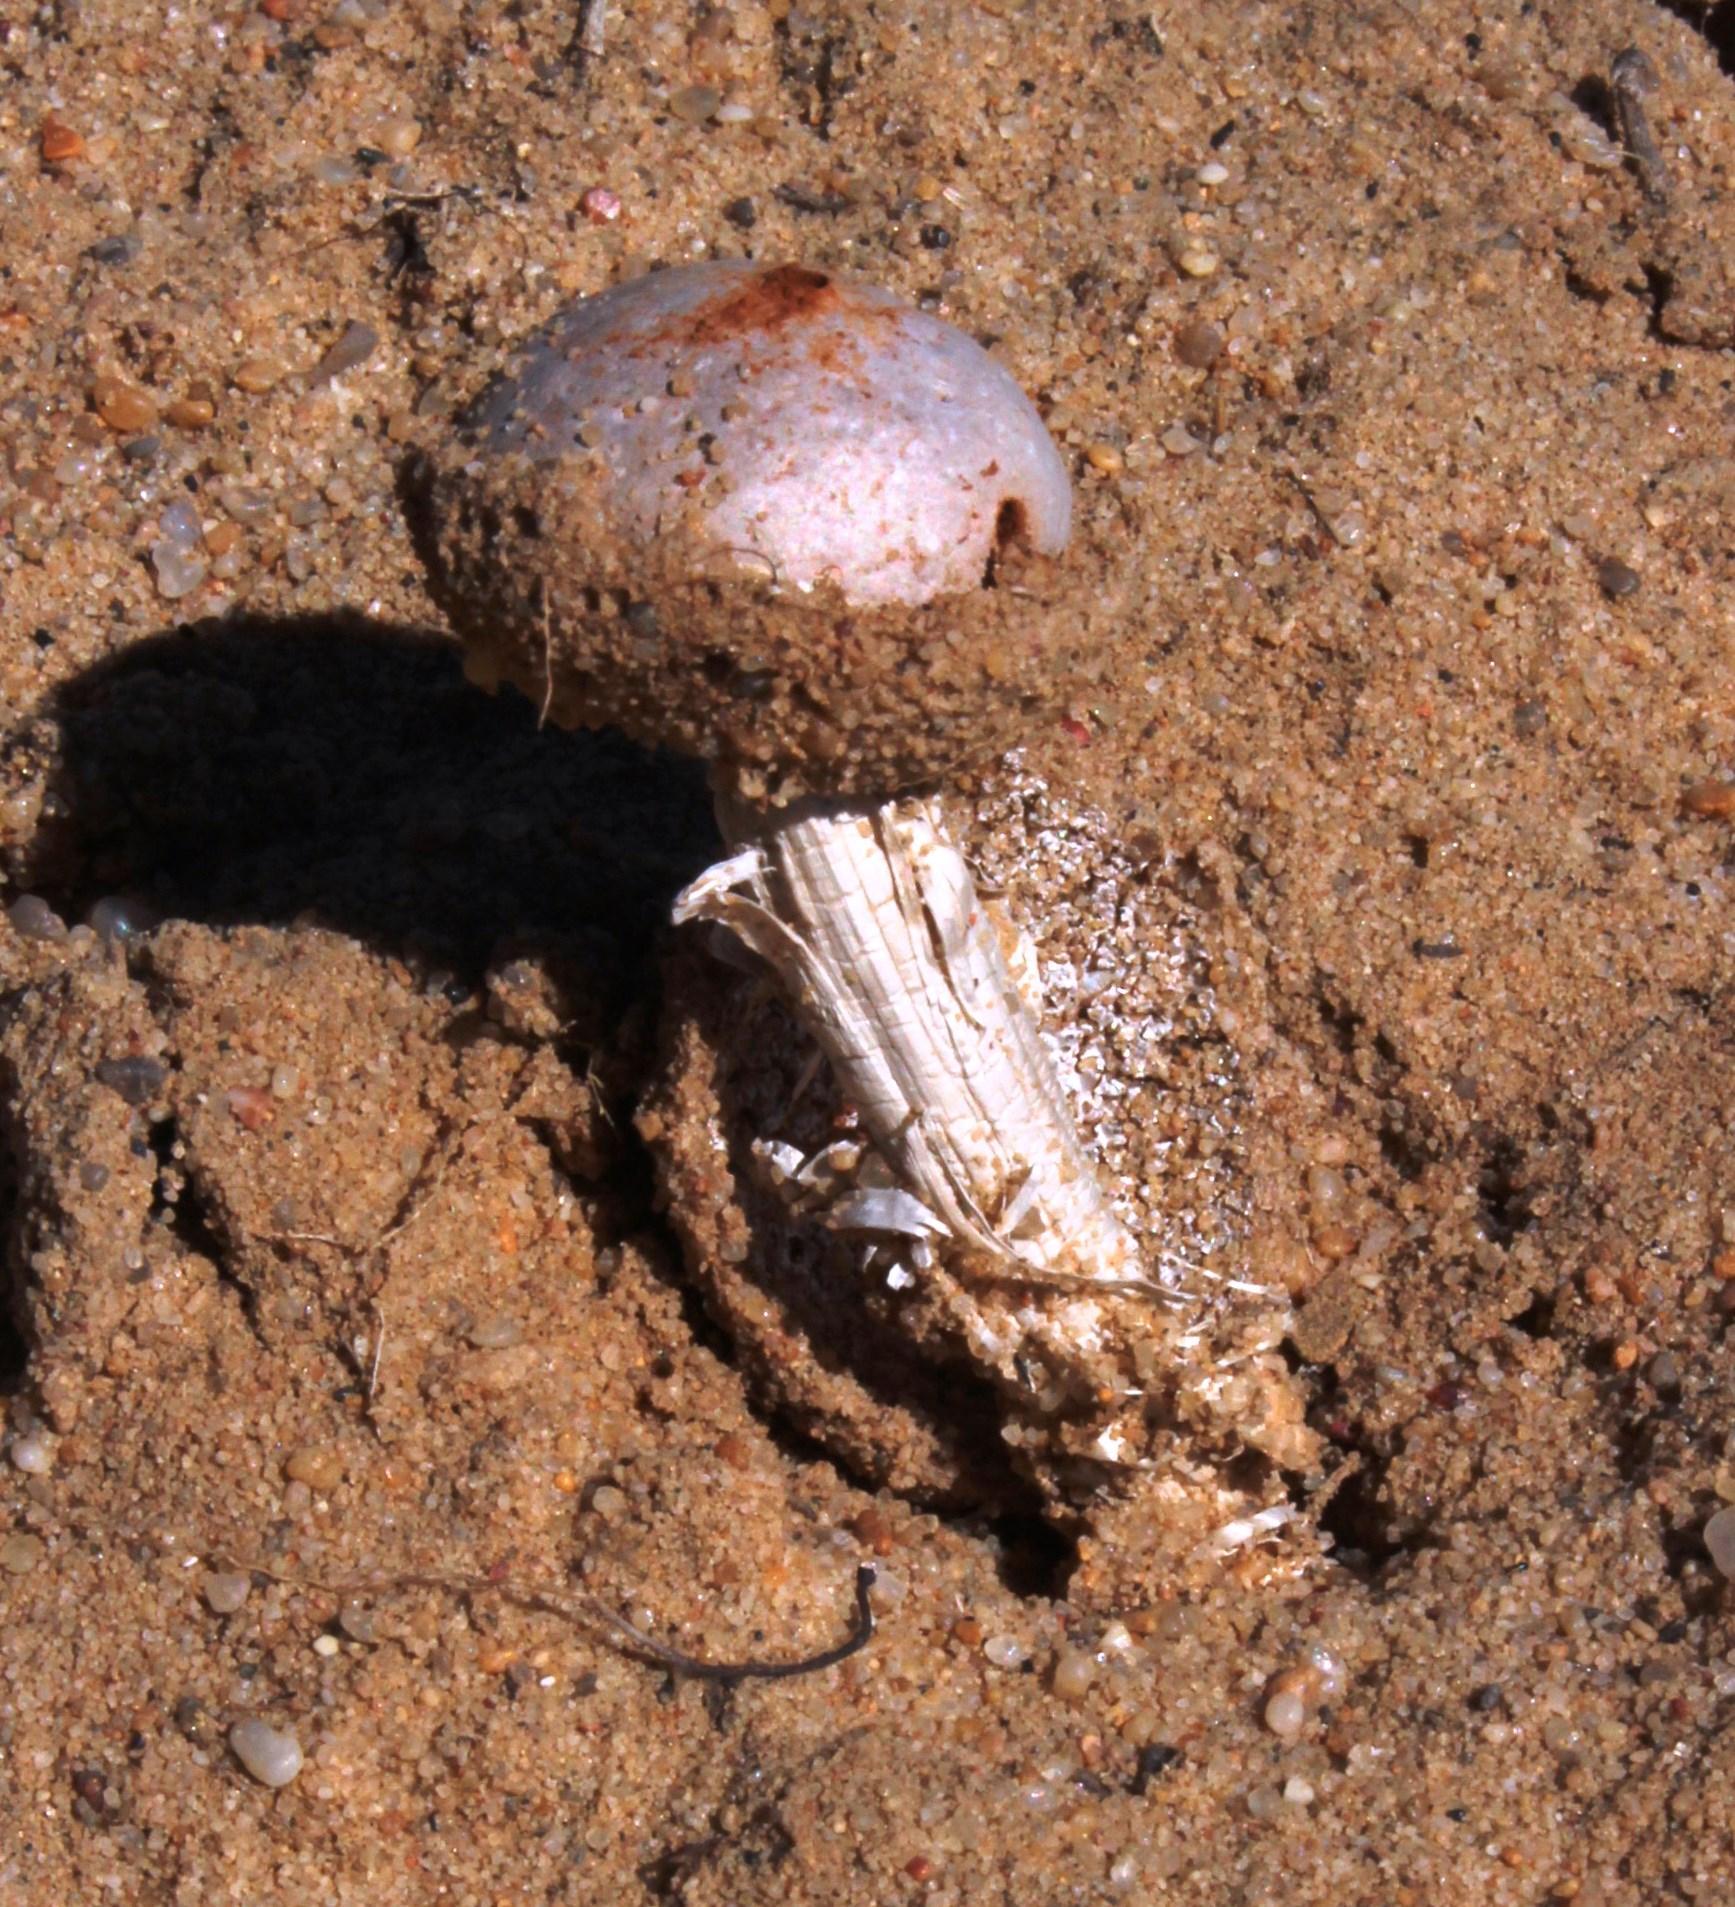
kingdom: Fungi
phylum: Basidiomycota
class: Agaricomycetes
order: Agaricales
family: Agaricaceae
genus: Tulostoma
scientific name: Tulostoma albicans
